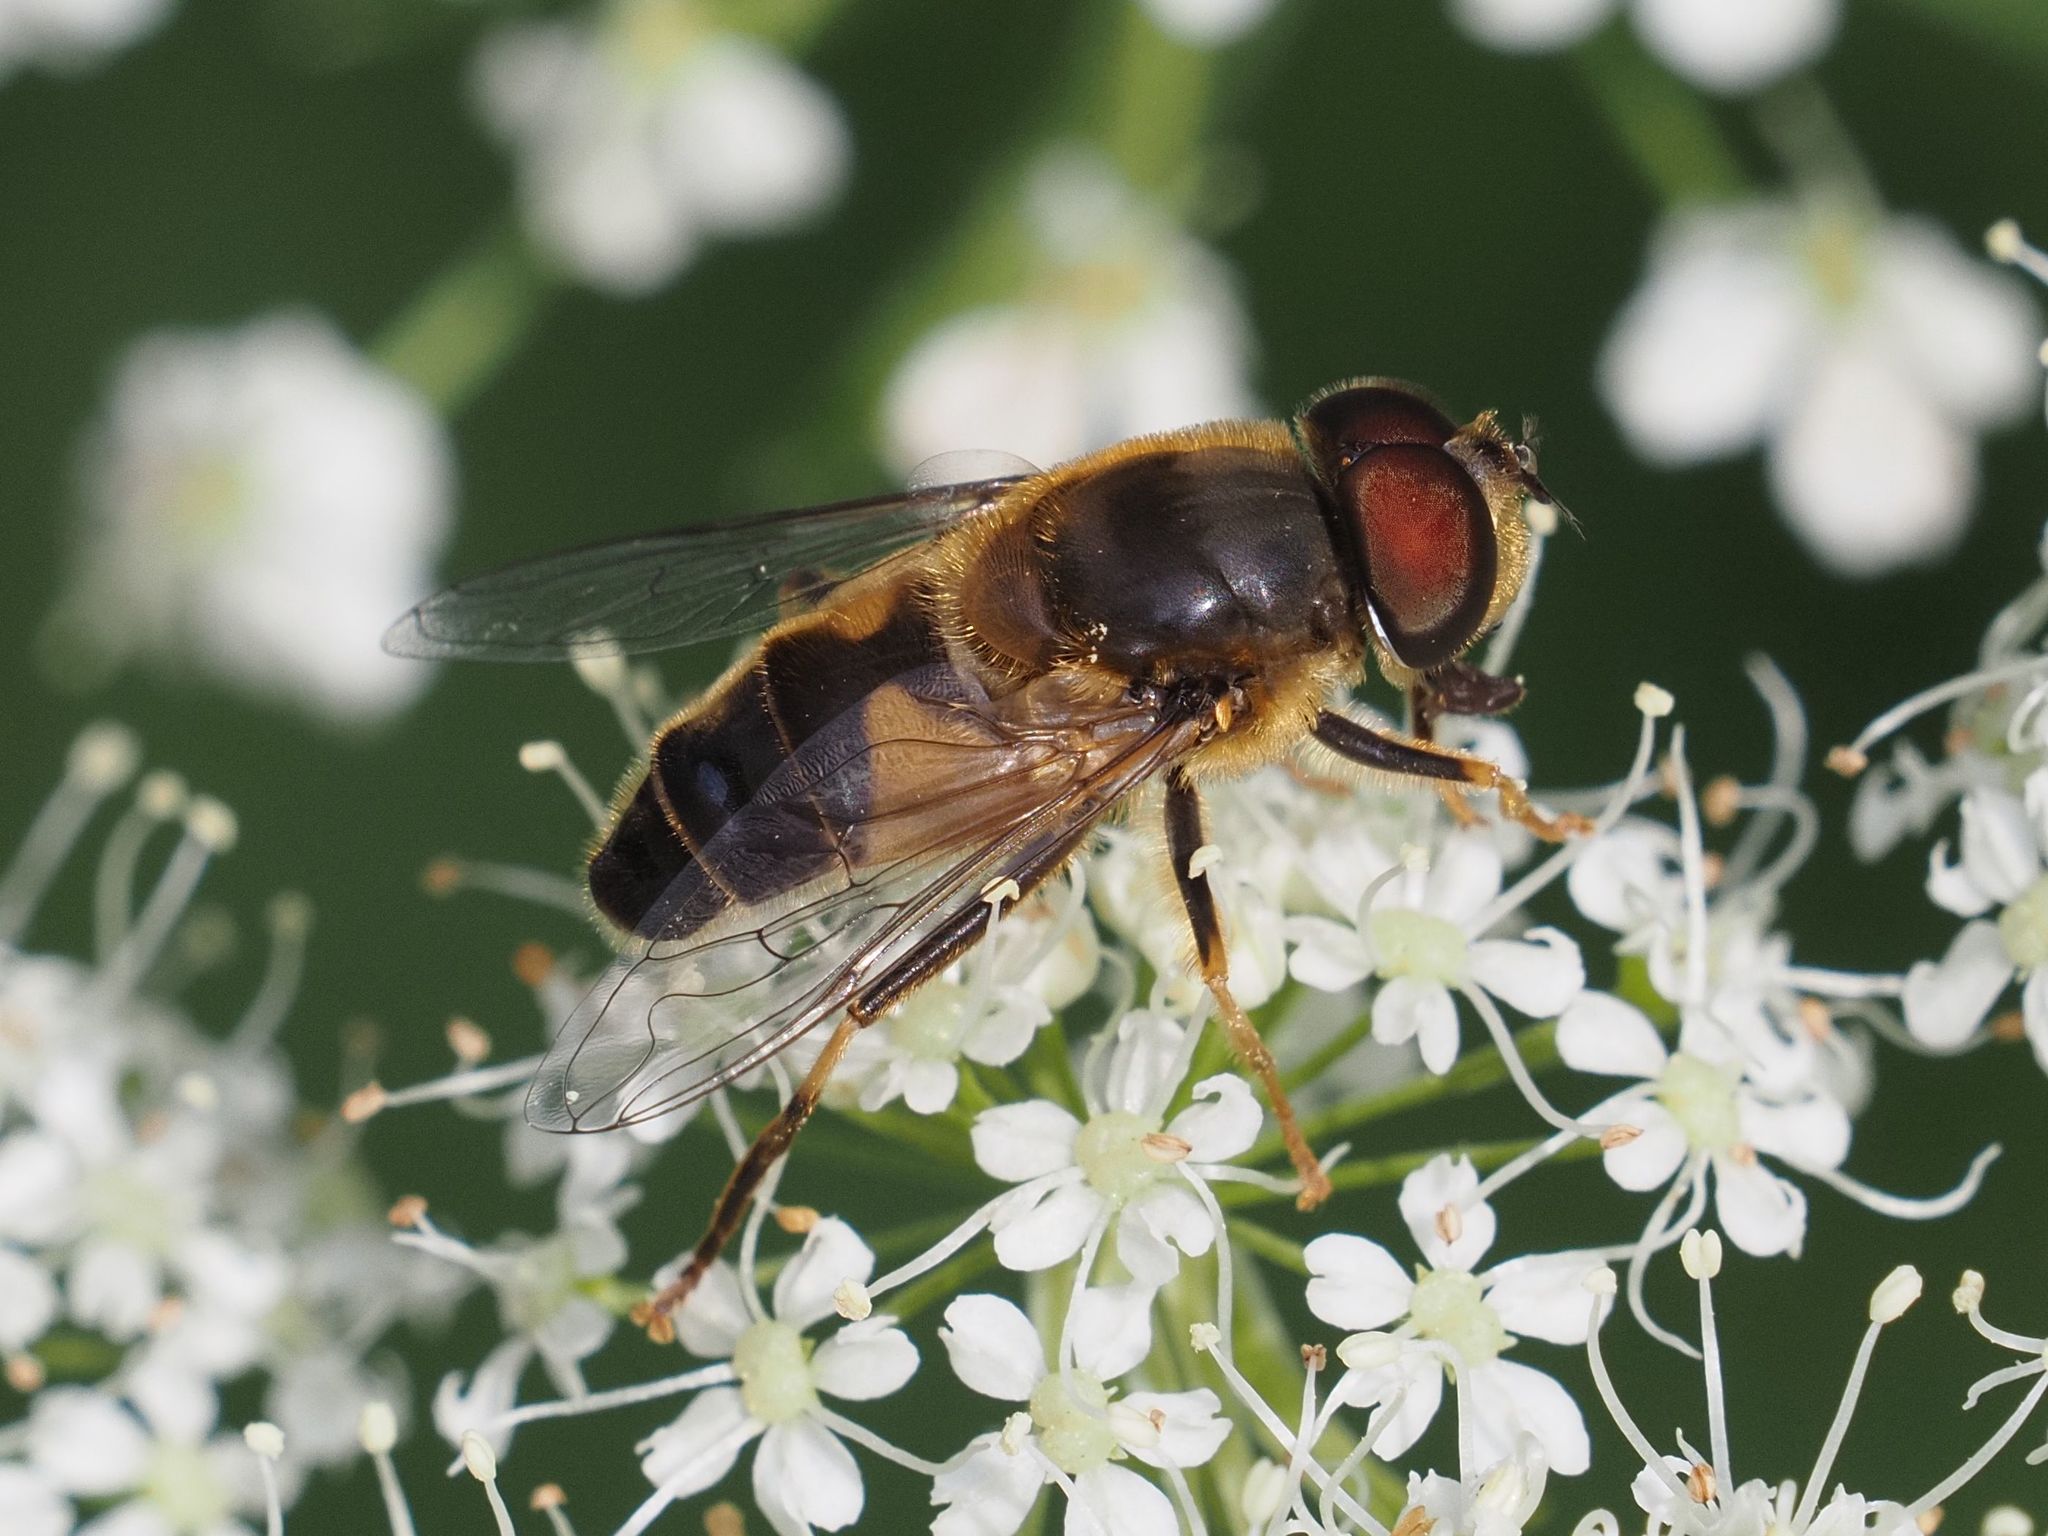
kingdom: Animalia
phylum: Arthropoda
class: Insecta
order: Diptera
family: Syrphidae
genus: Eristalis
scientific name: Eristalis pertinax
